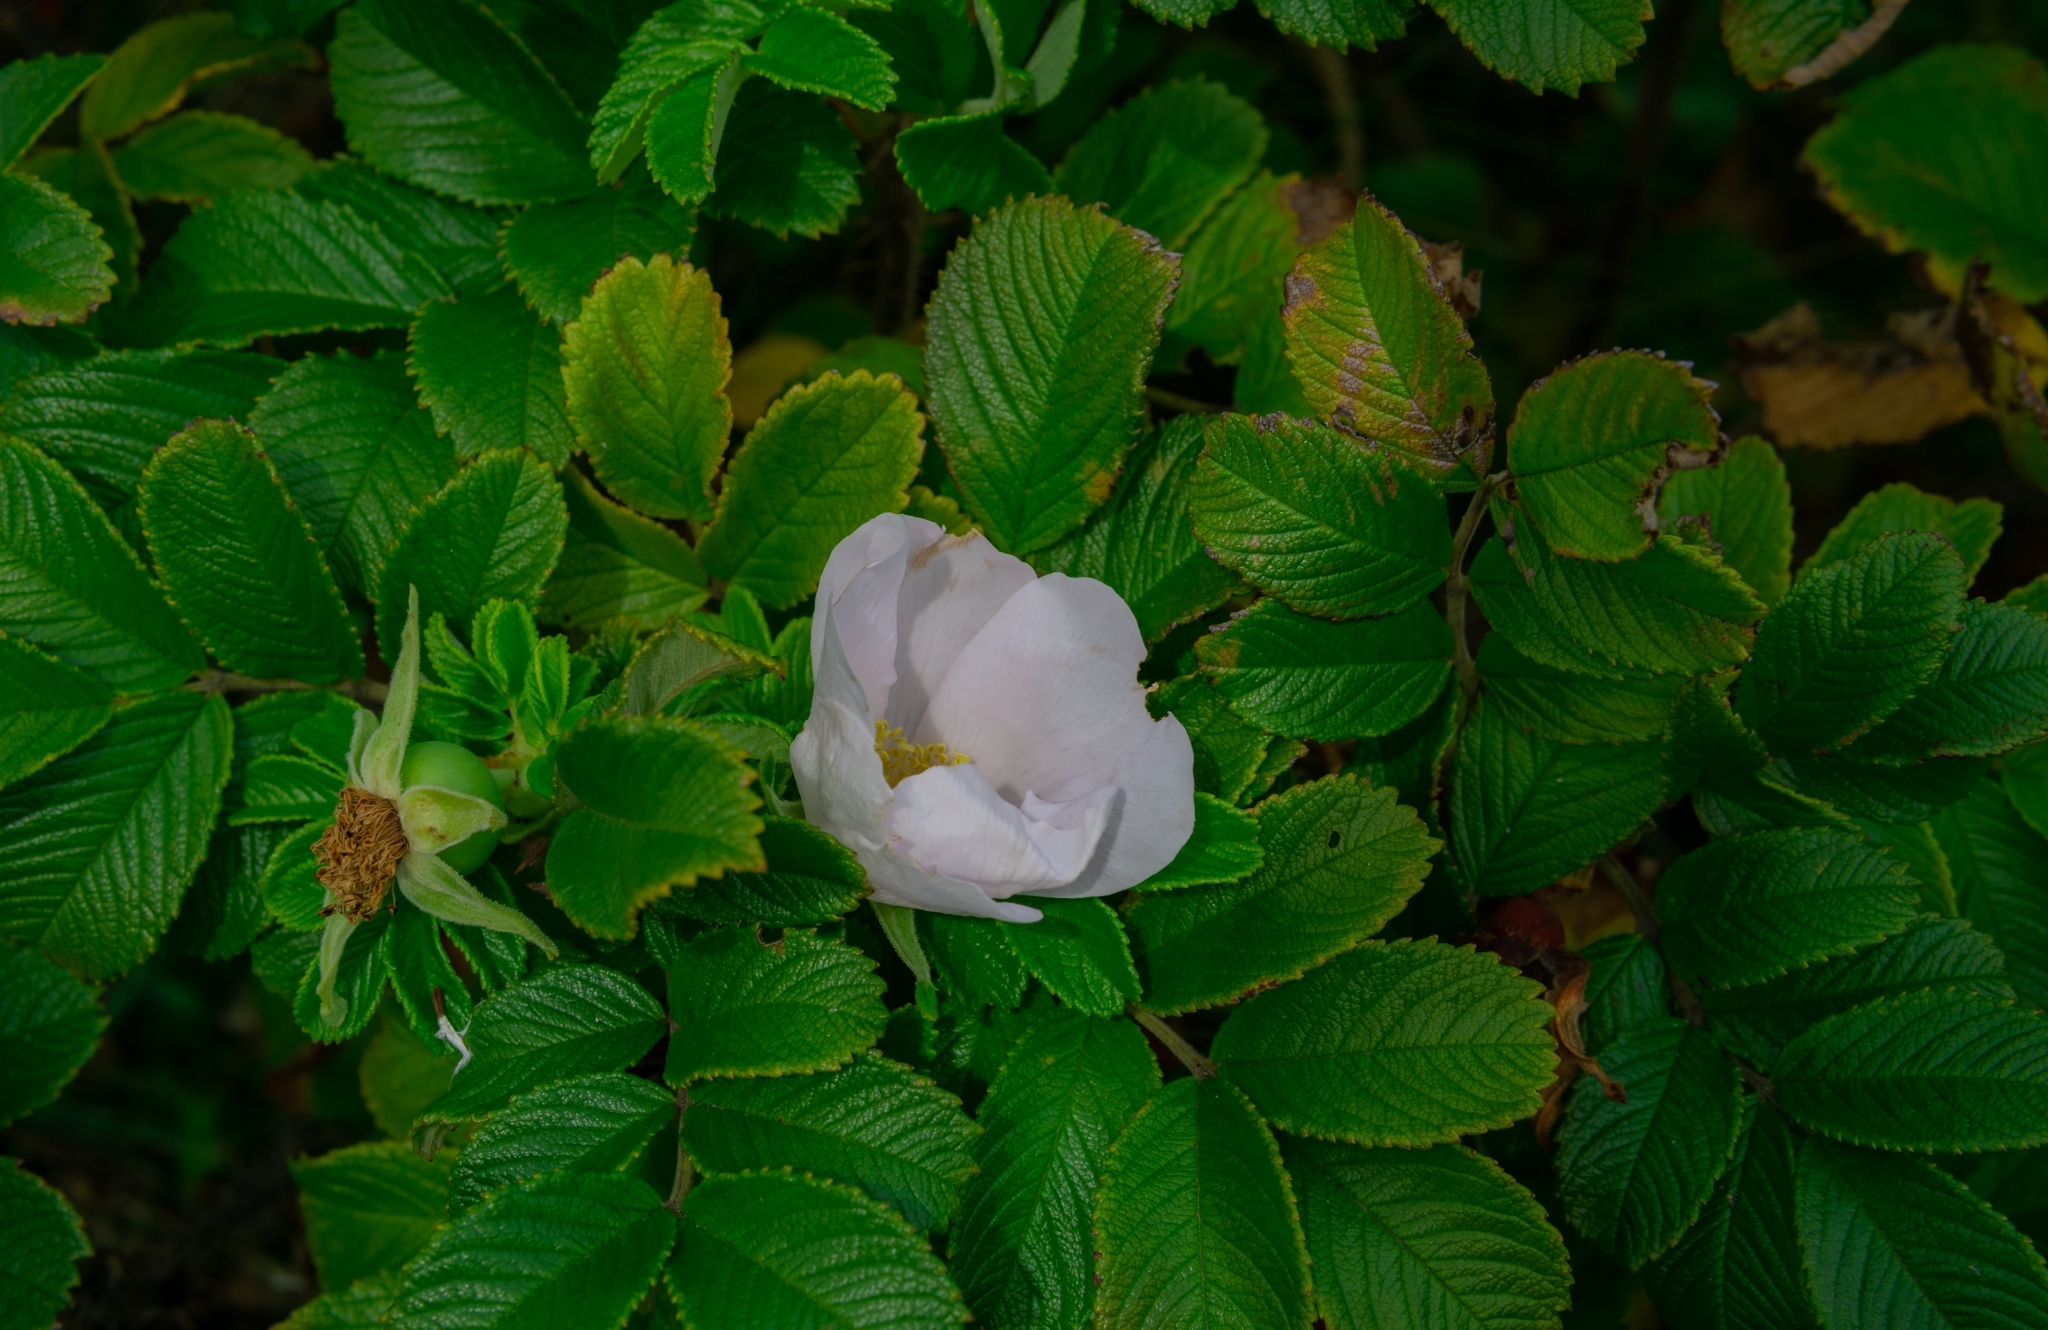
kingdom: Plantae
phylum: Tracheophyta
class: Magnoliopsida
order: Rosales
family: Rosaceae
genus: Rosa
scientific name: Rosa rugosa
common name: Japanese rose
